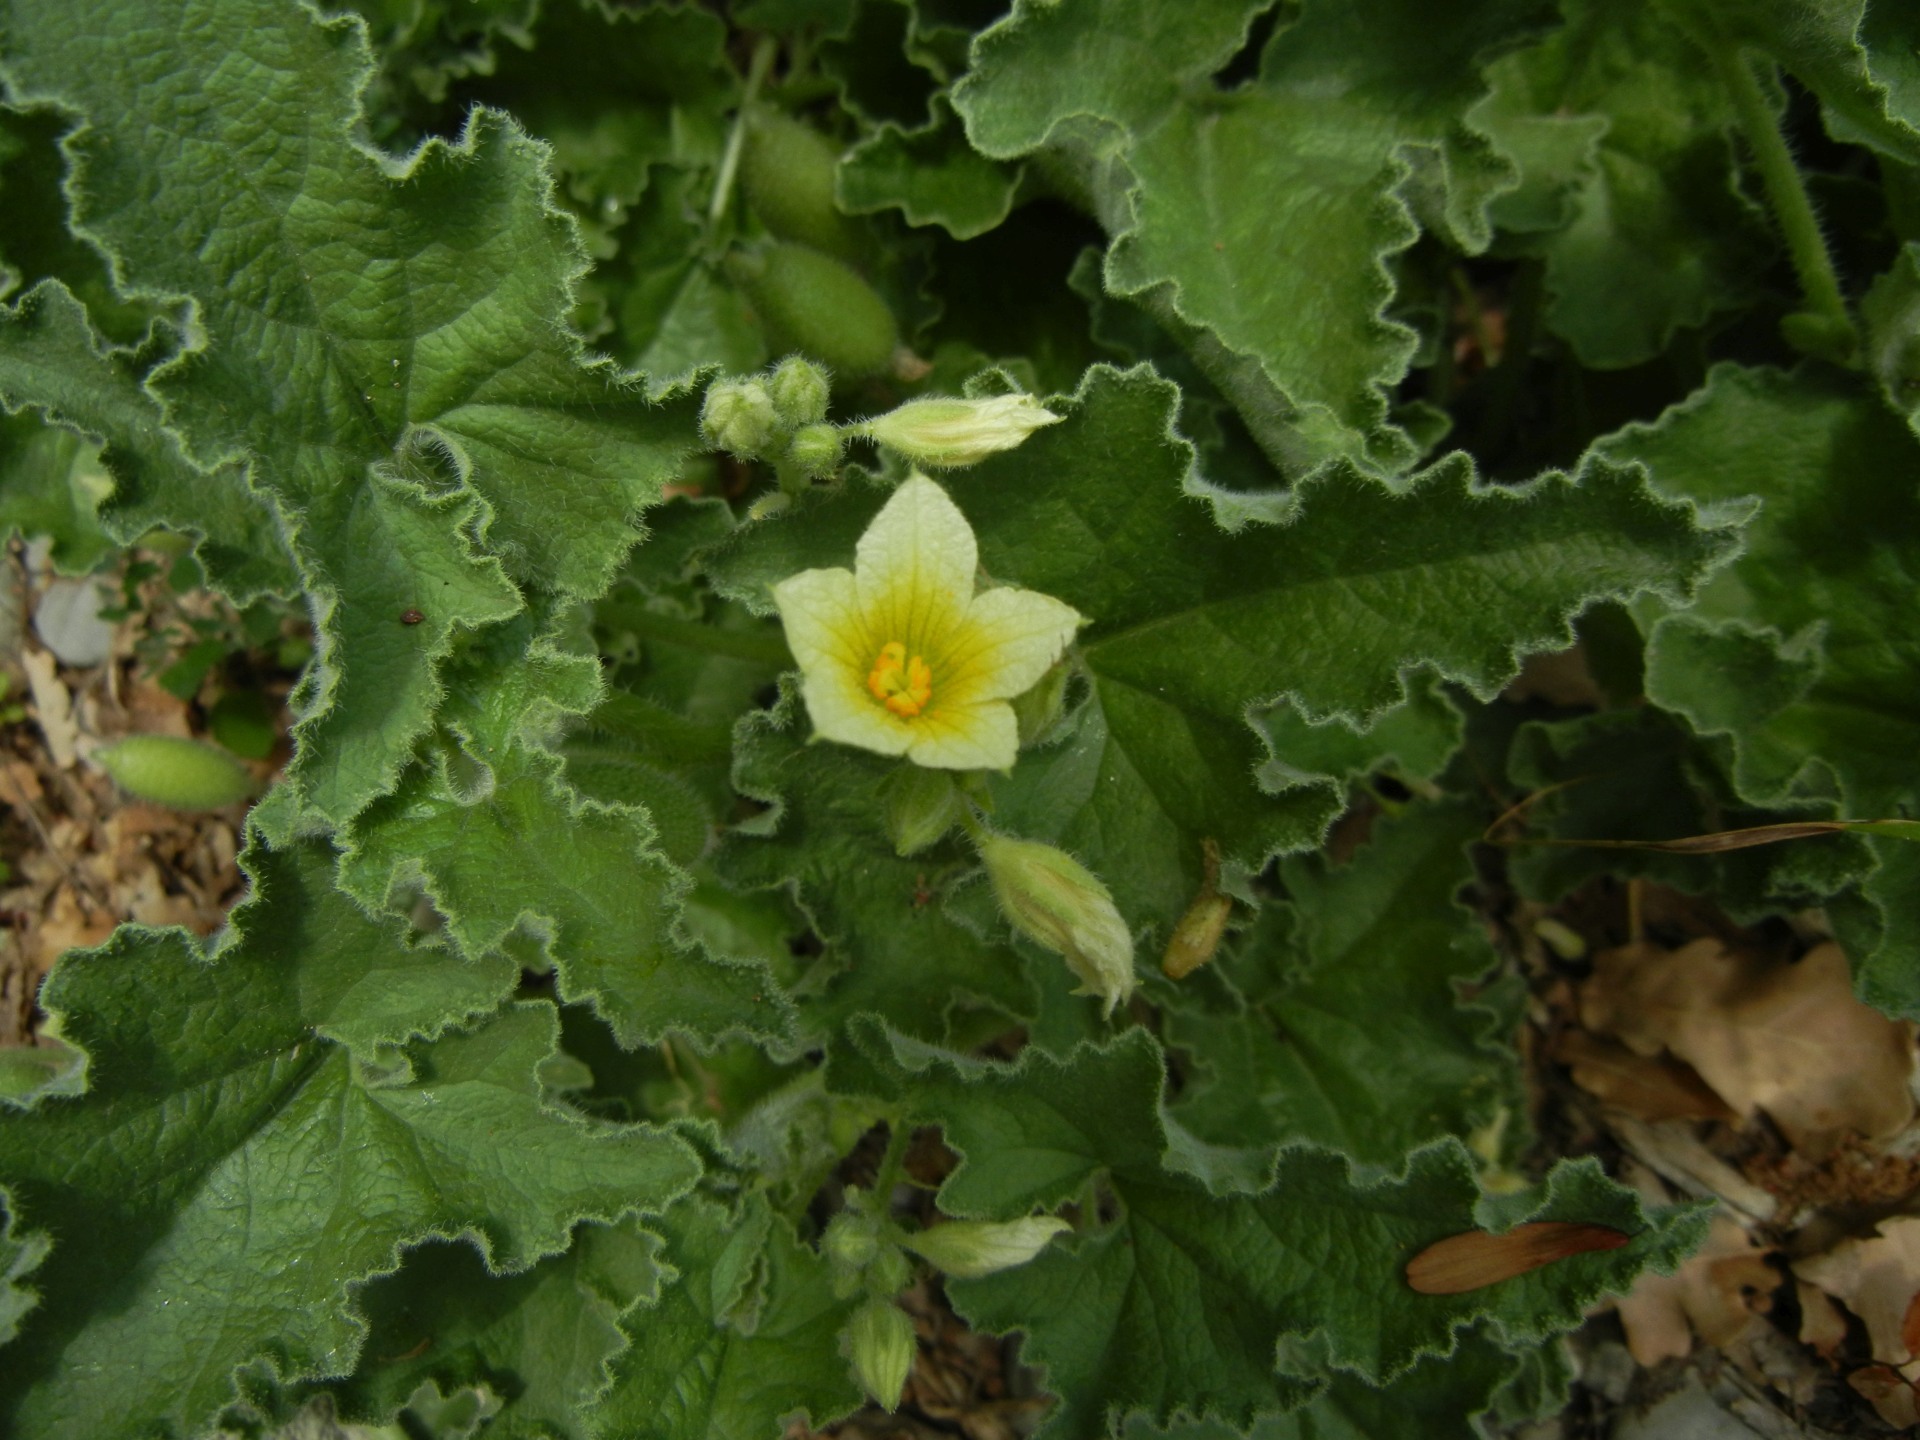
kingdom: Plantae
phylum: Tracheophyta
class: Magnoliopsida
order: Cucurbitales
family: Cucurbitaceae
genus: Ecballium
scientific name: Ecballium elaterium
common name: Squirting cucumber
